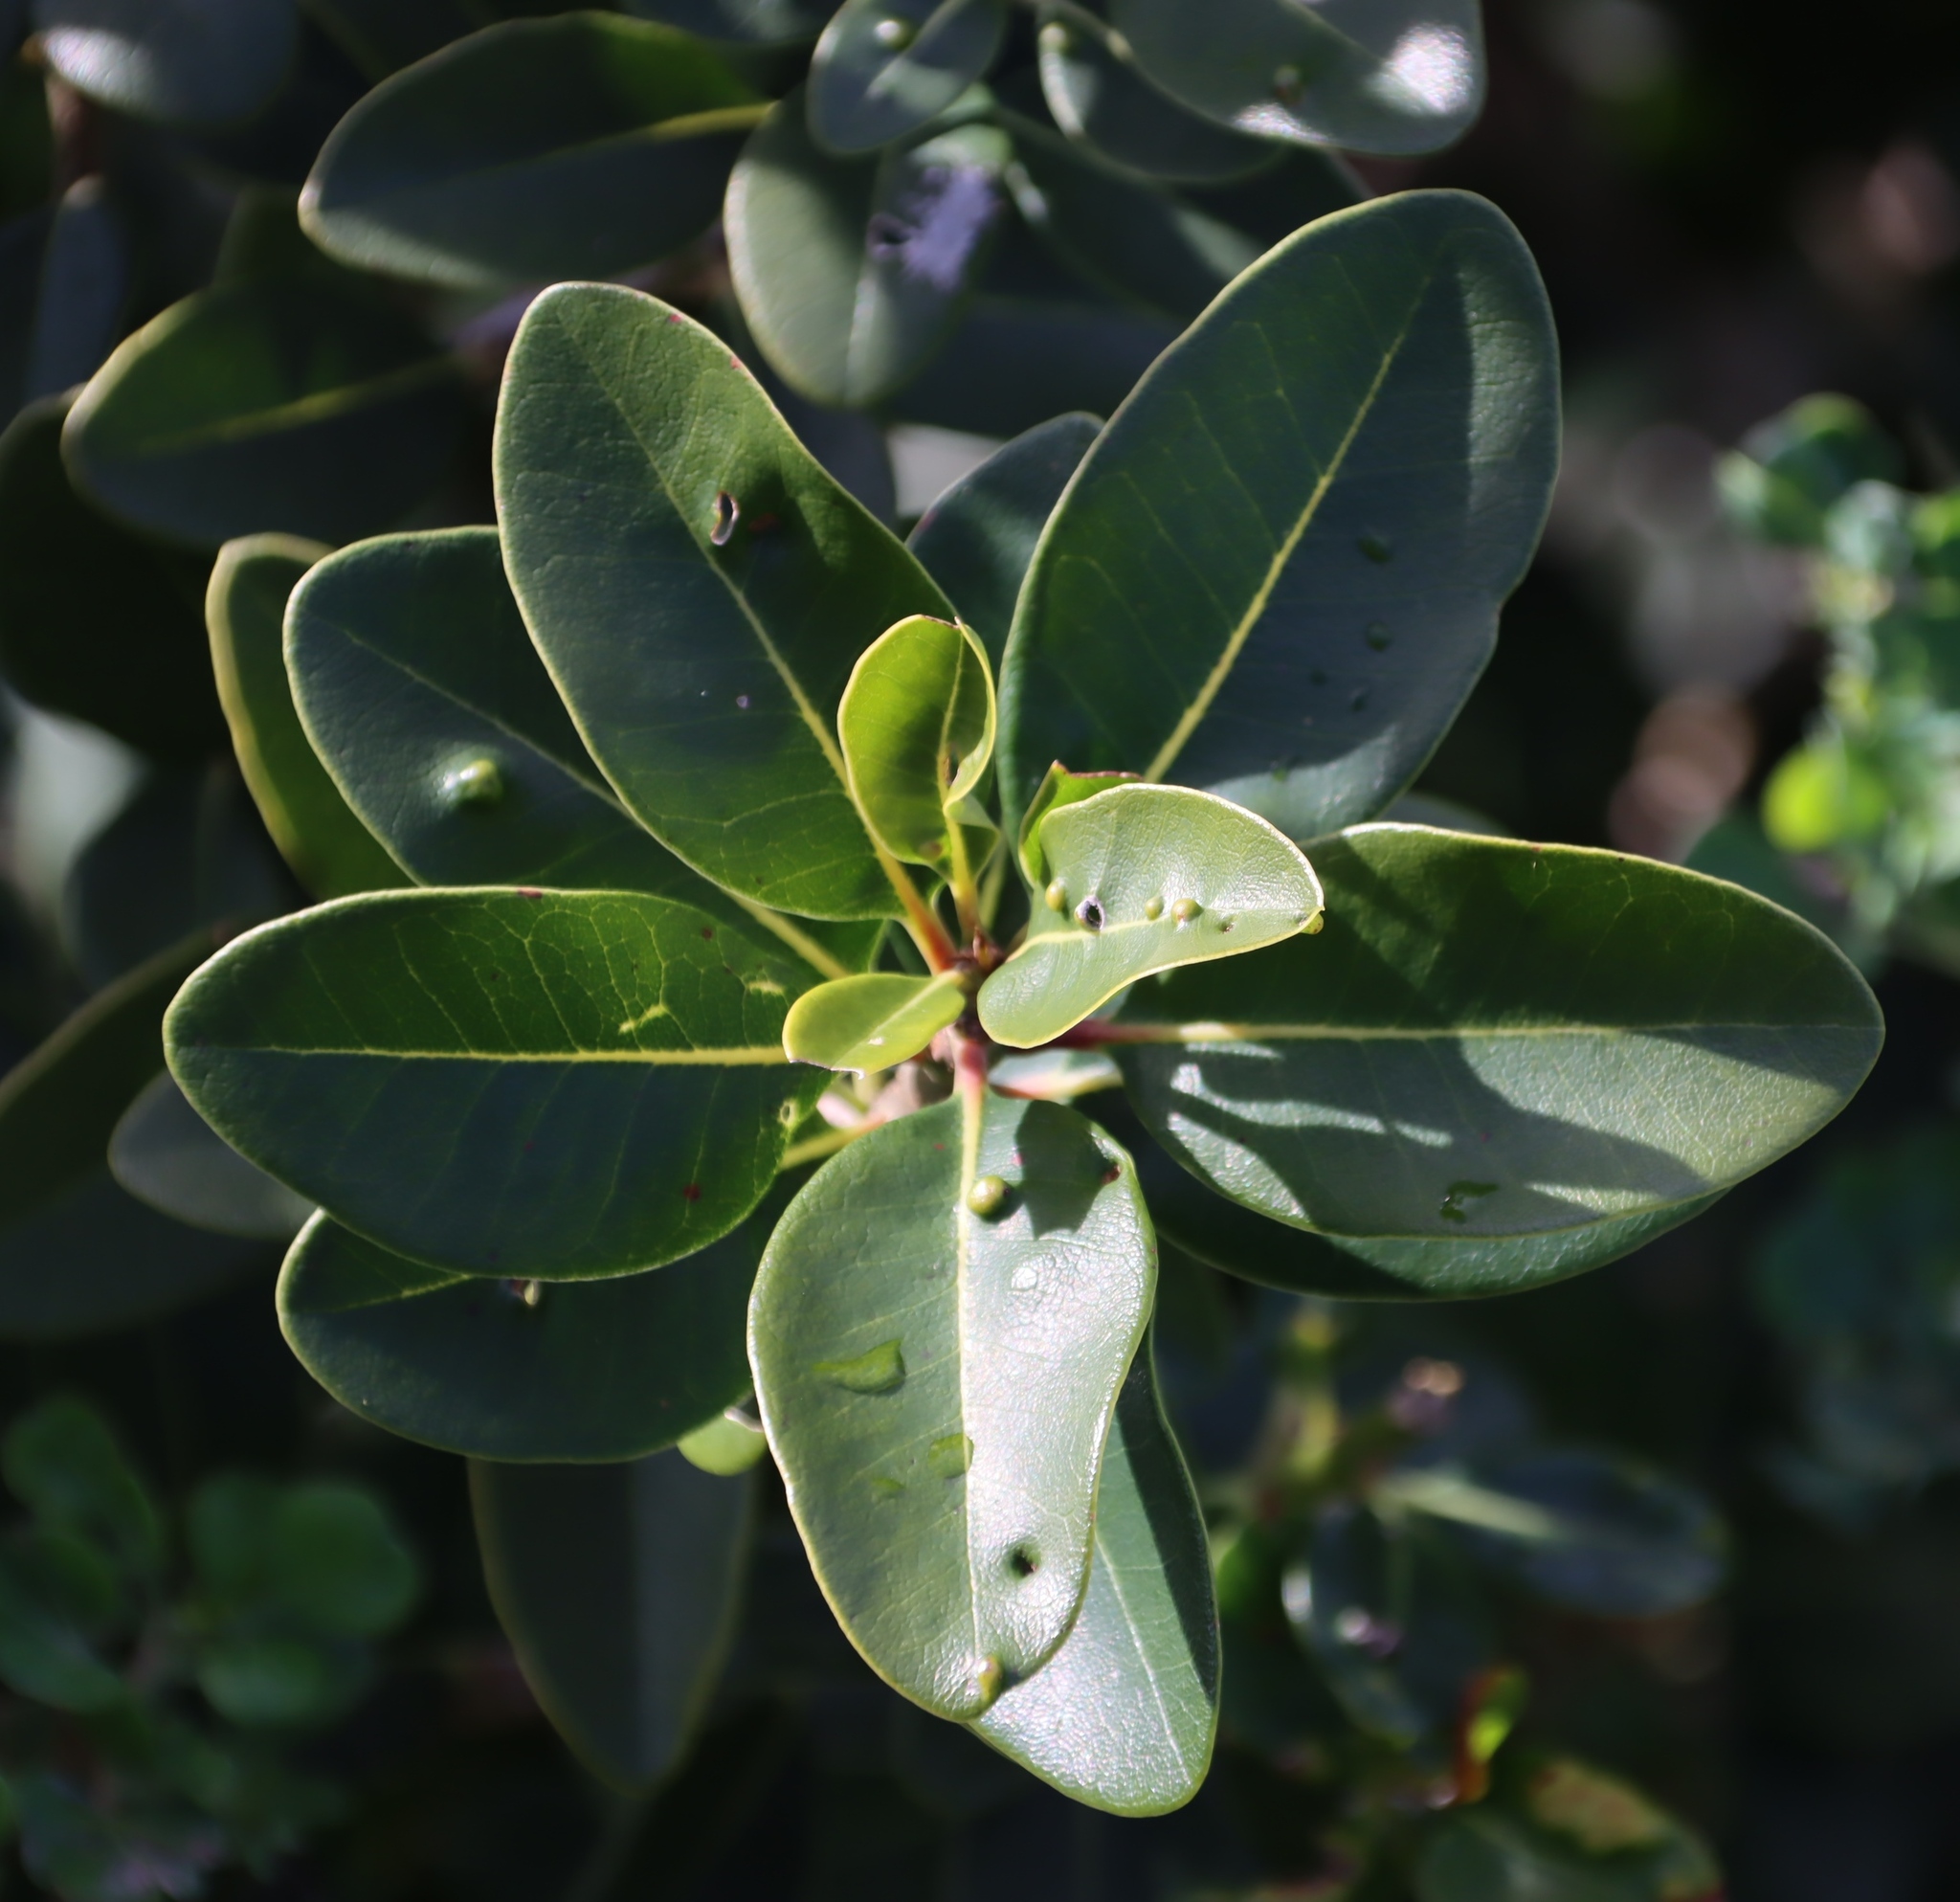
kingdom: Plantae
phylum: Tracheophyta
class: Magnoliopsida
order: Ericales
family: Sapotaceae
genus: Sideroxylon
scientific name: Sideroxylon inerme
